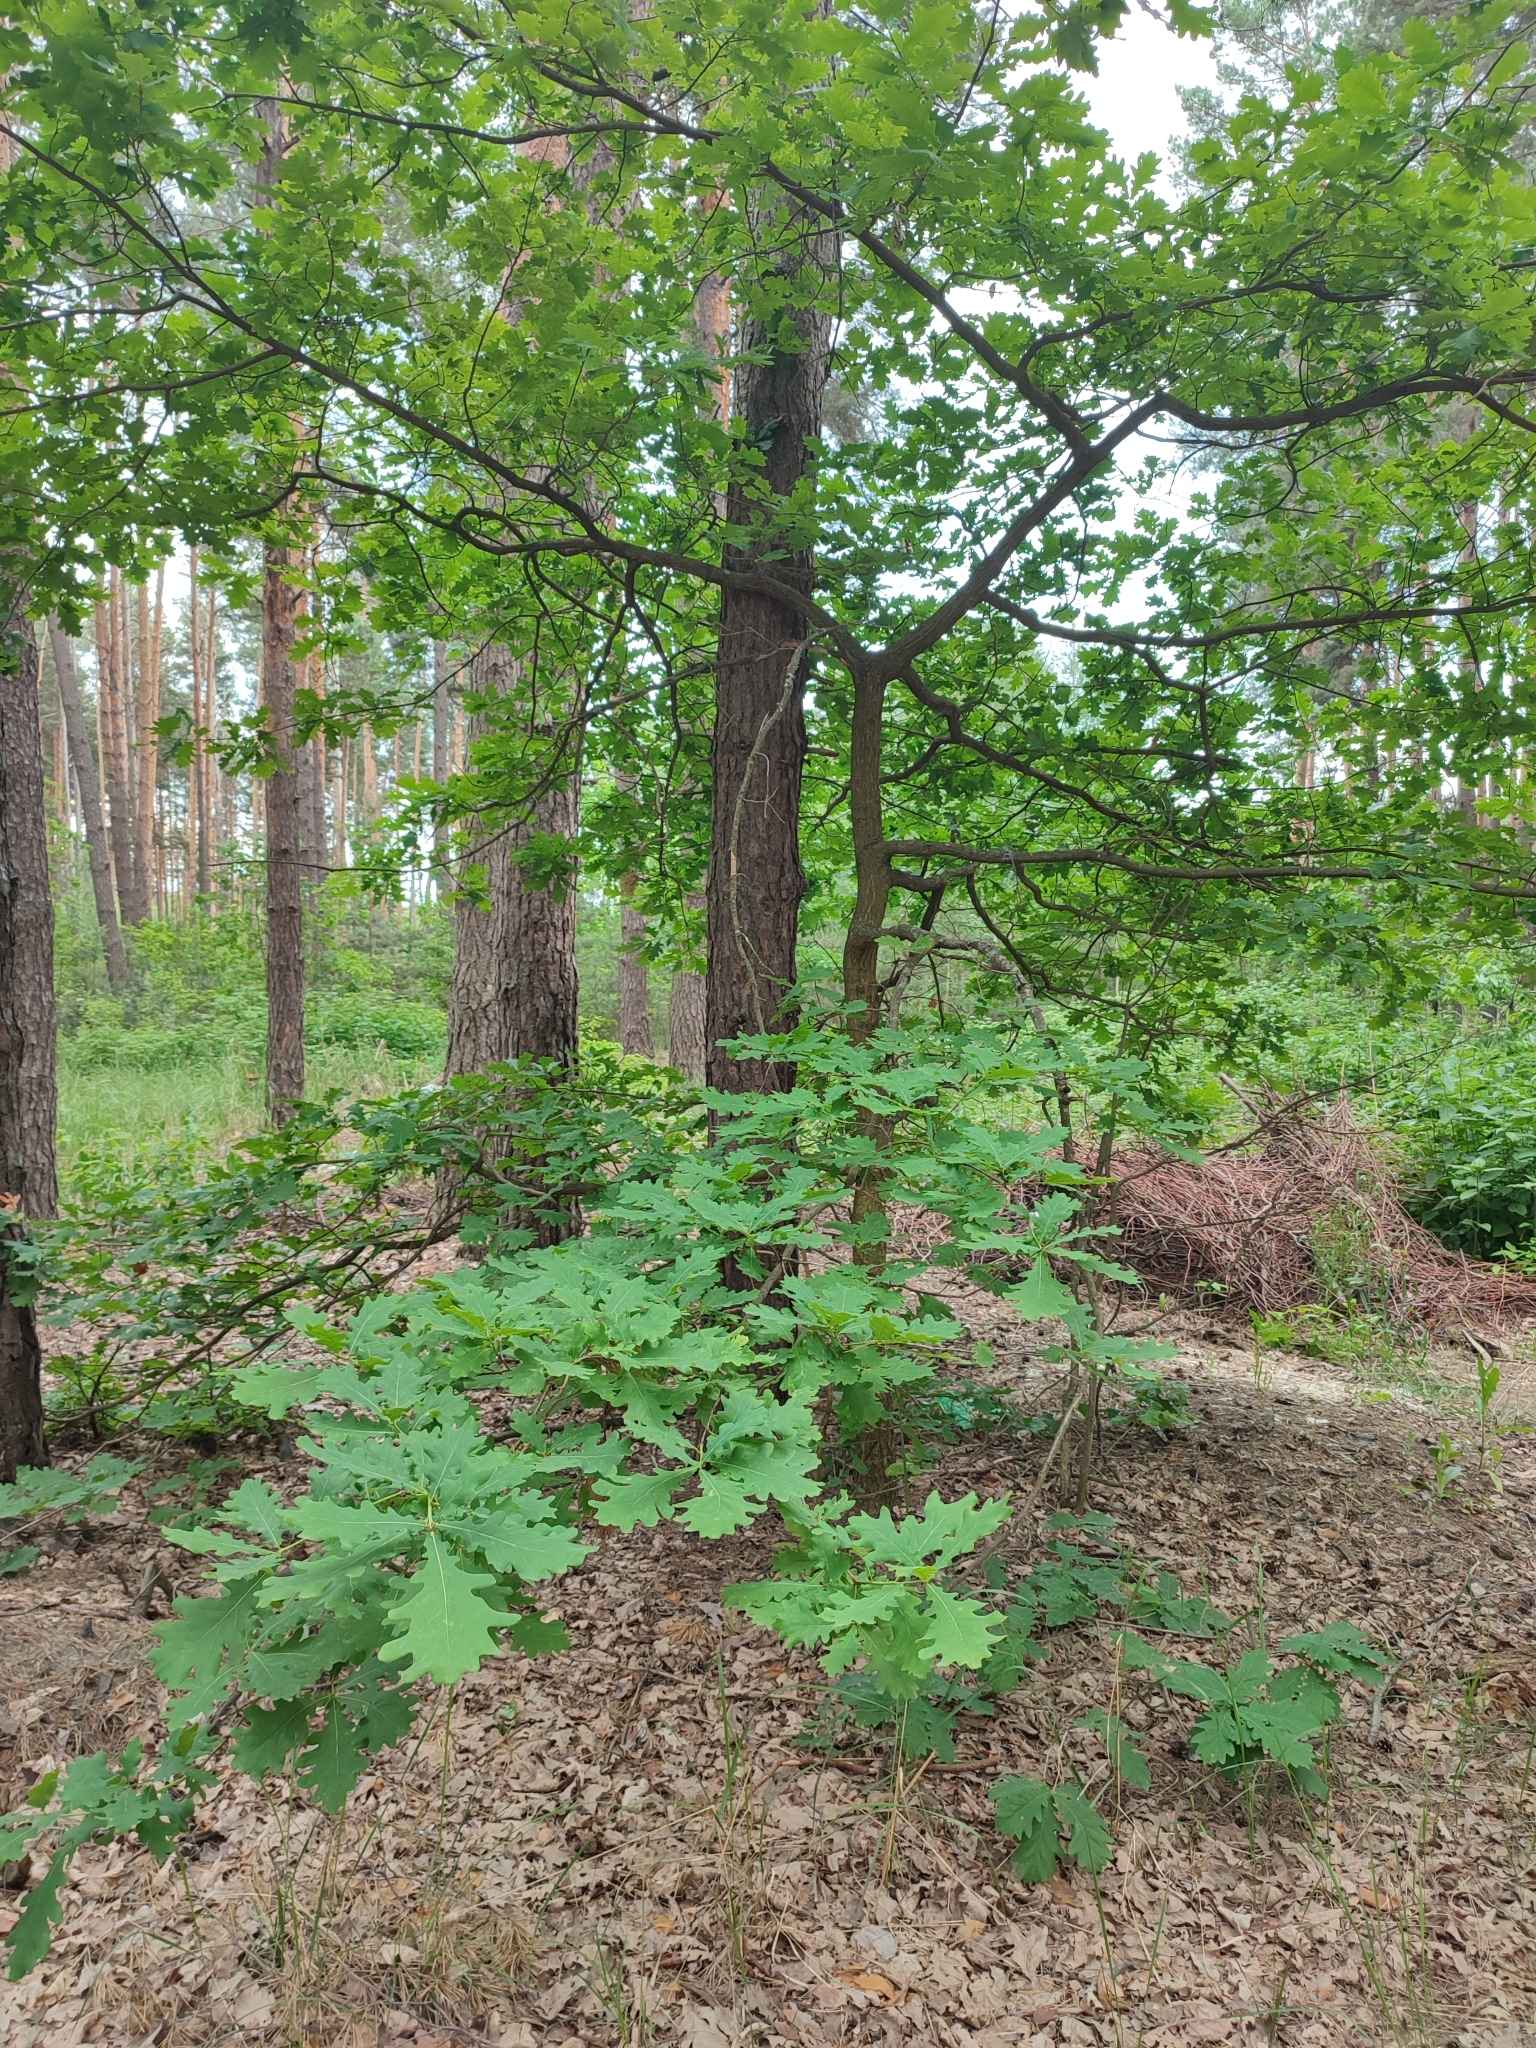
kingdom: Plantae
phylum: Tracheophyta
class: Magnoliopsida
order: Fagales
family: Fagaceae
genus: Quercus
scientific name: Quercus robur
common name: Pedunculate oak
